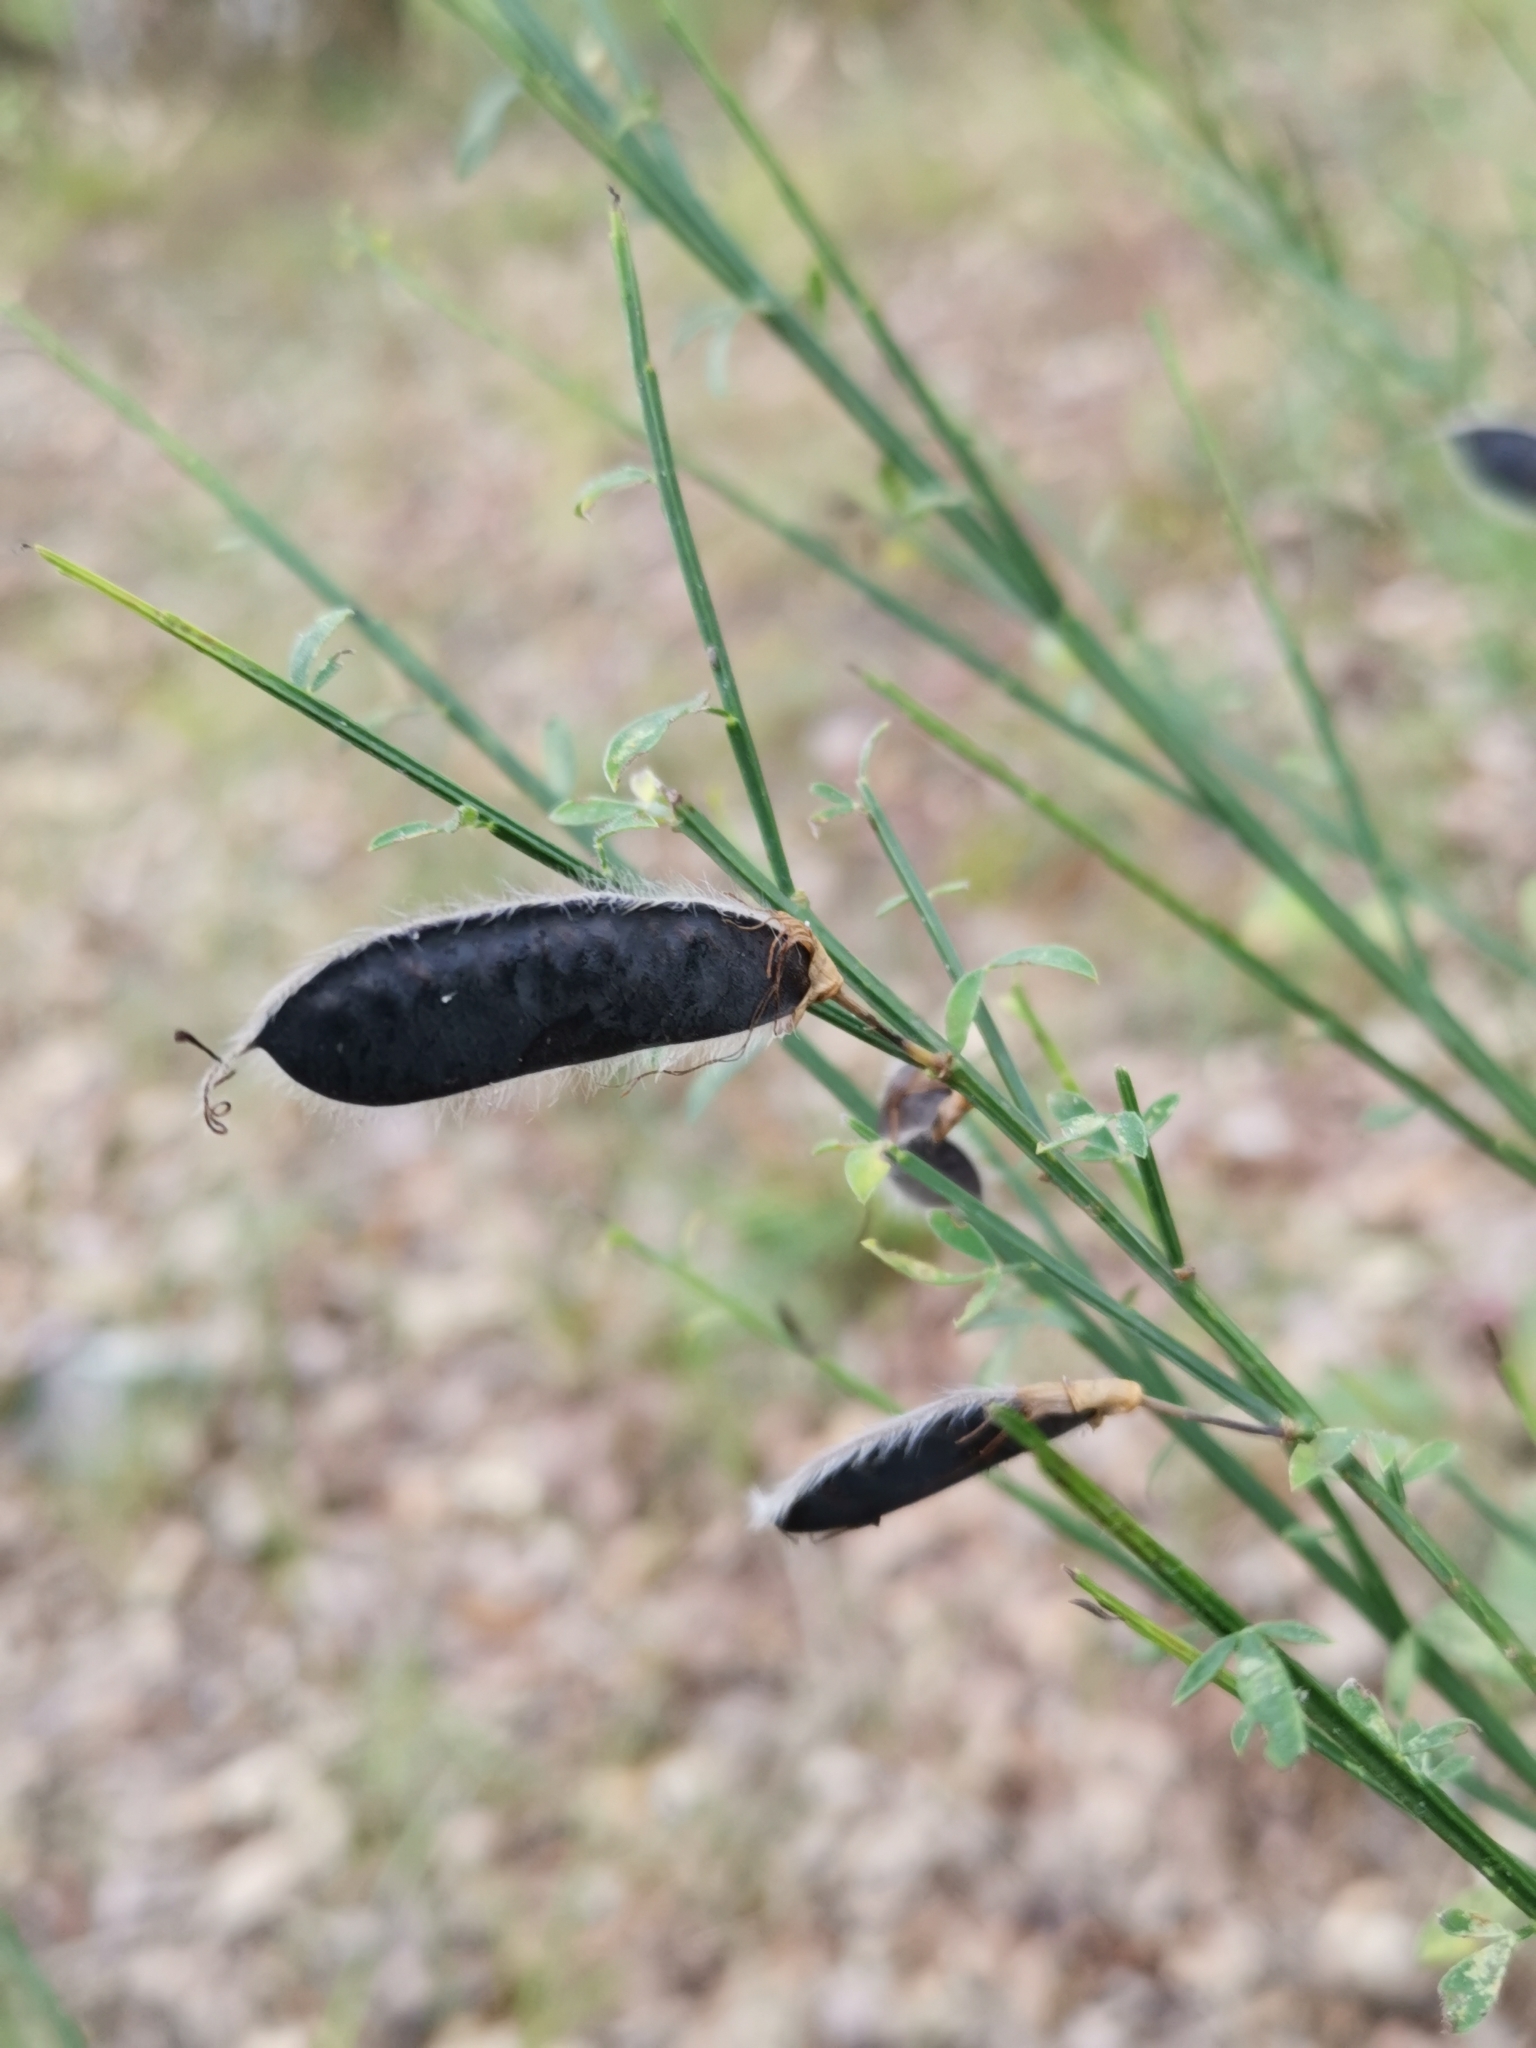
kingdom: Plantae
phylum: Tracheophyta
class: Magnoliopsida
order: Fabales
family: Fabaceae
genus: Cytisus
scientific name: Cytisus scoparius
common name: Scotch broom
